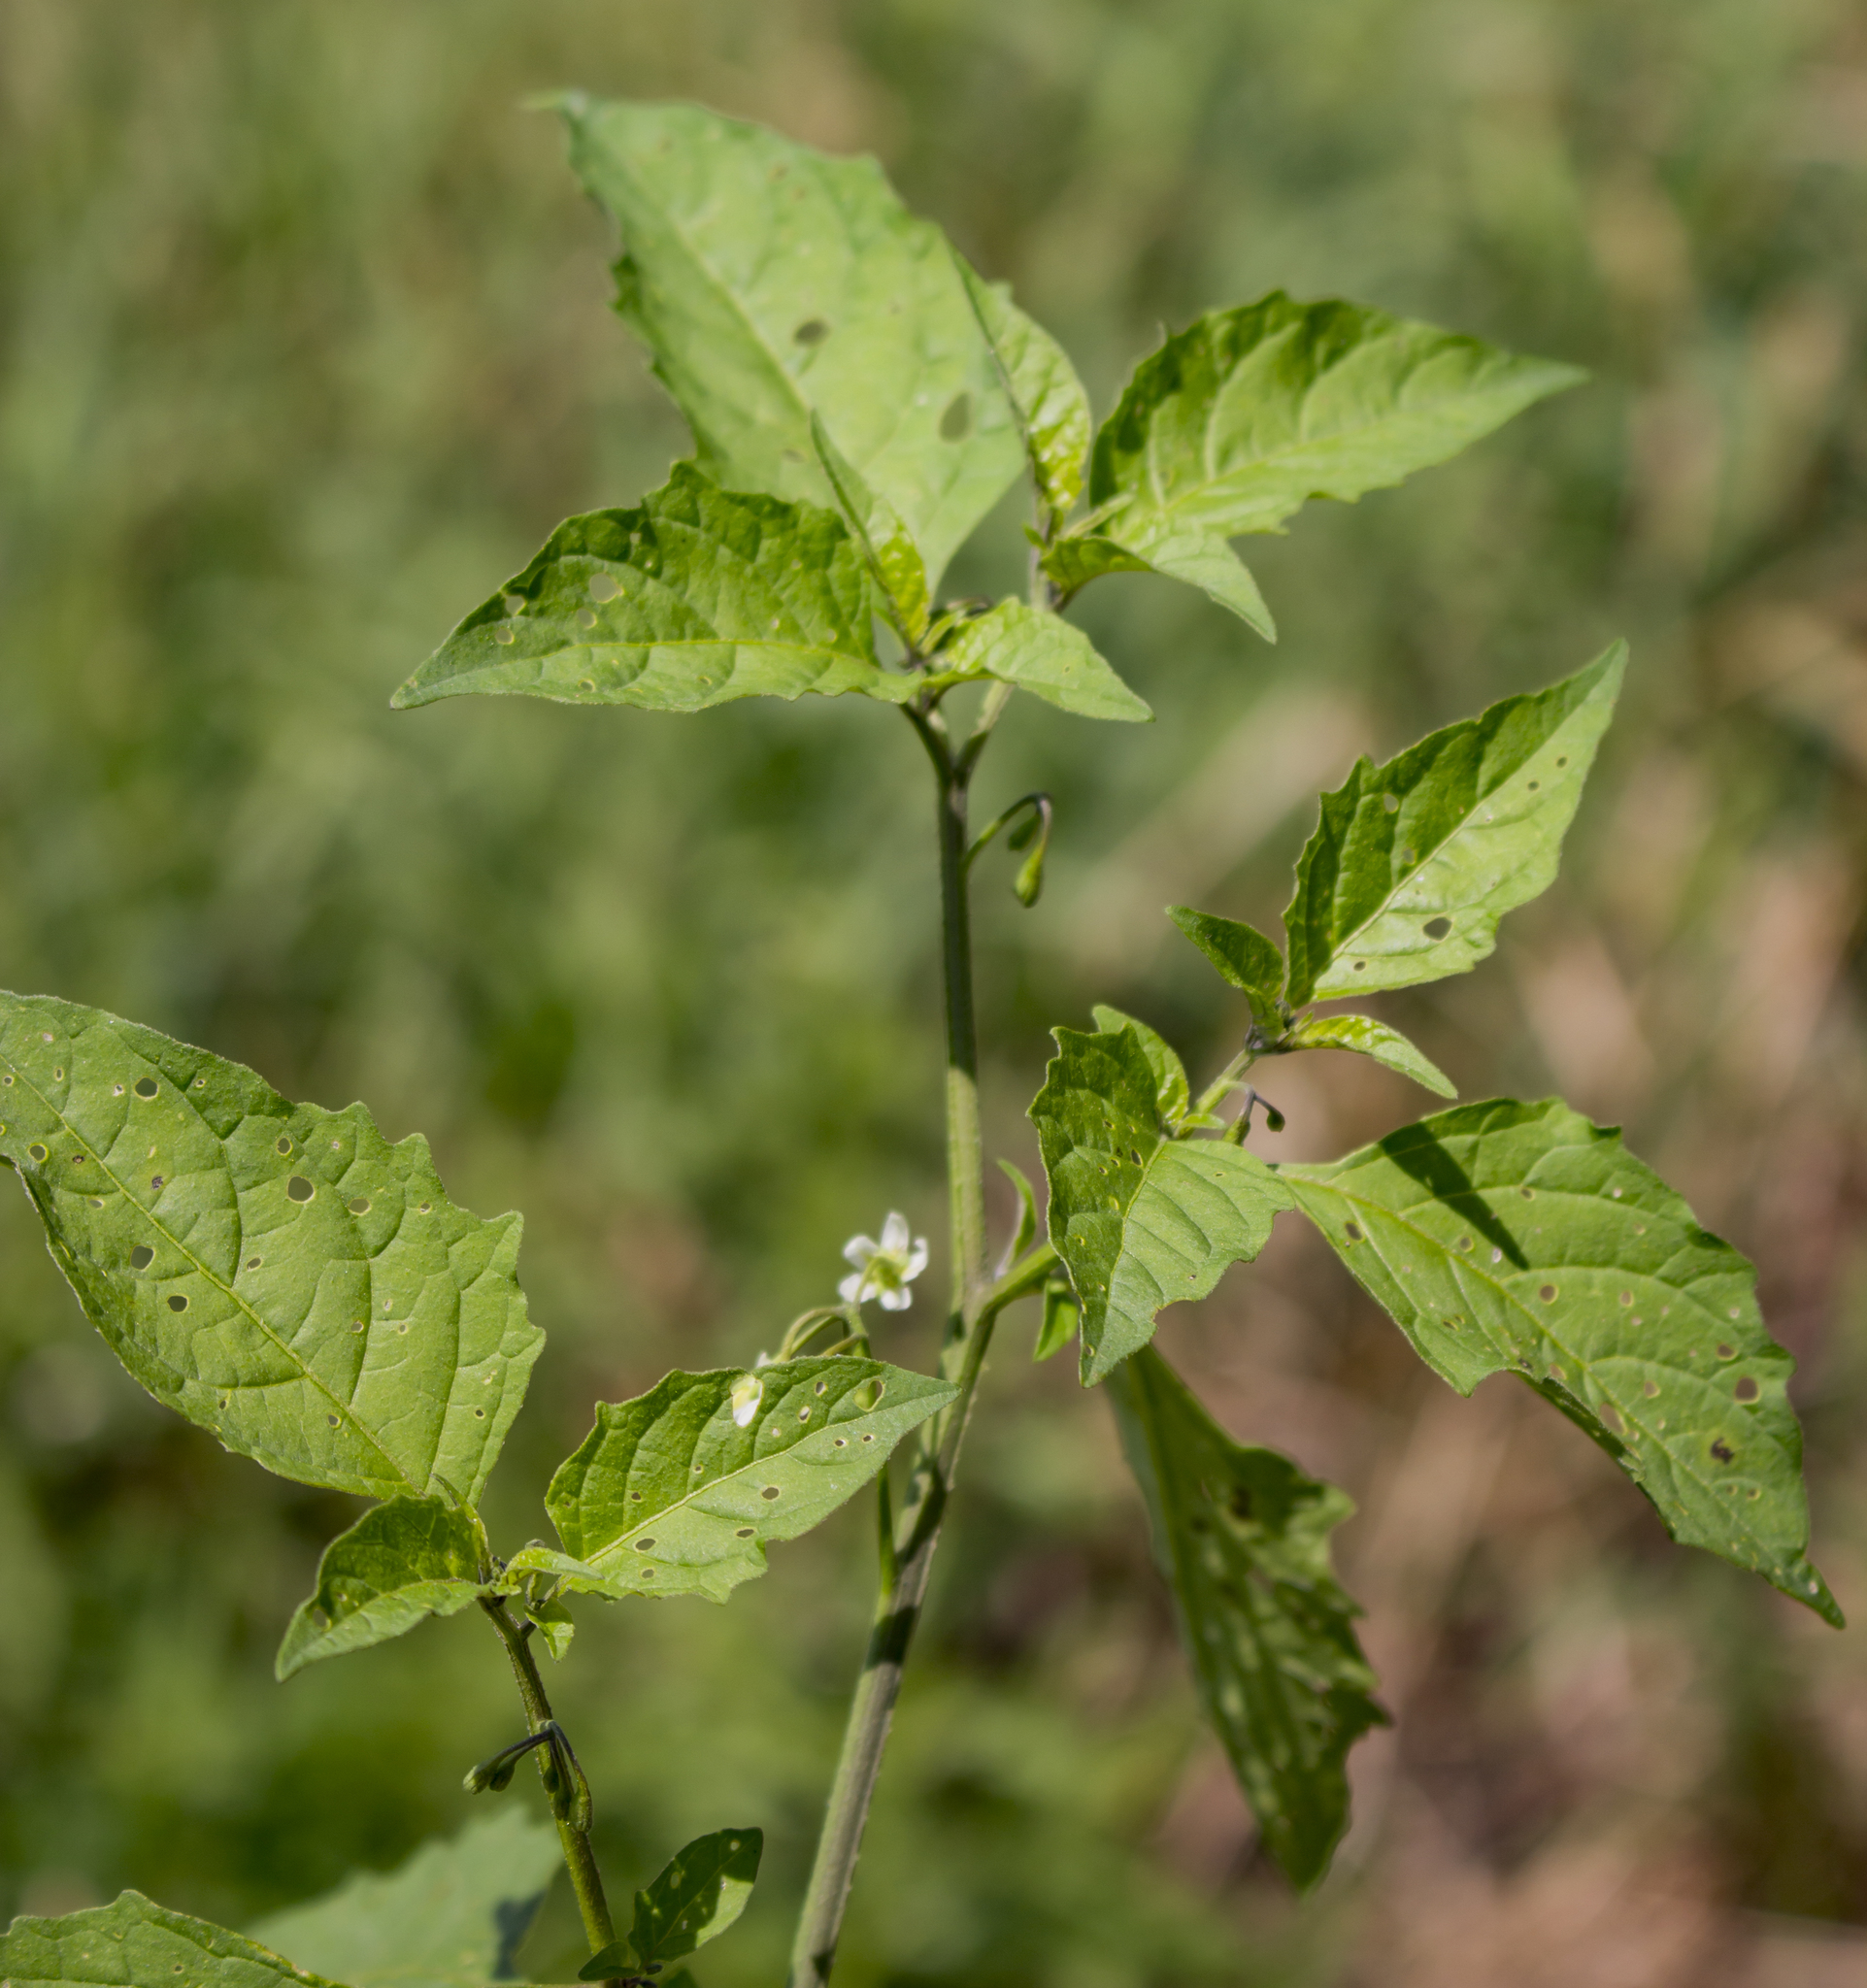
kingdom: Plantae
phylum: Tracheophyta
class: Magnoliopsida
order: Solanales
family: Solanaceae
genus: Solanum
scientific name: Solanum emulans
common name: Eastern black nightshade
